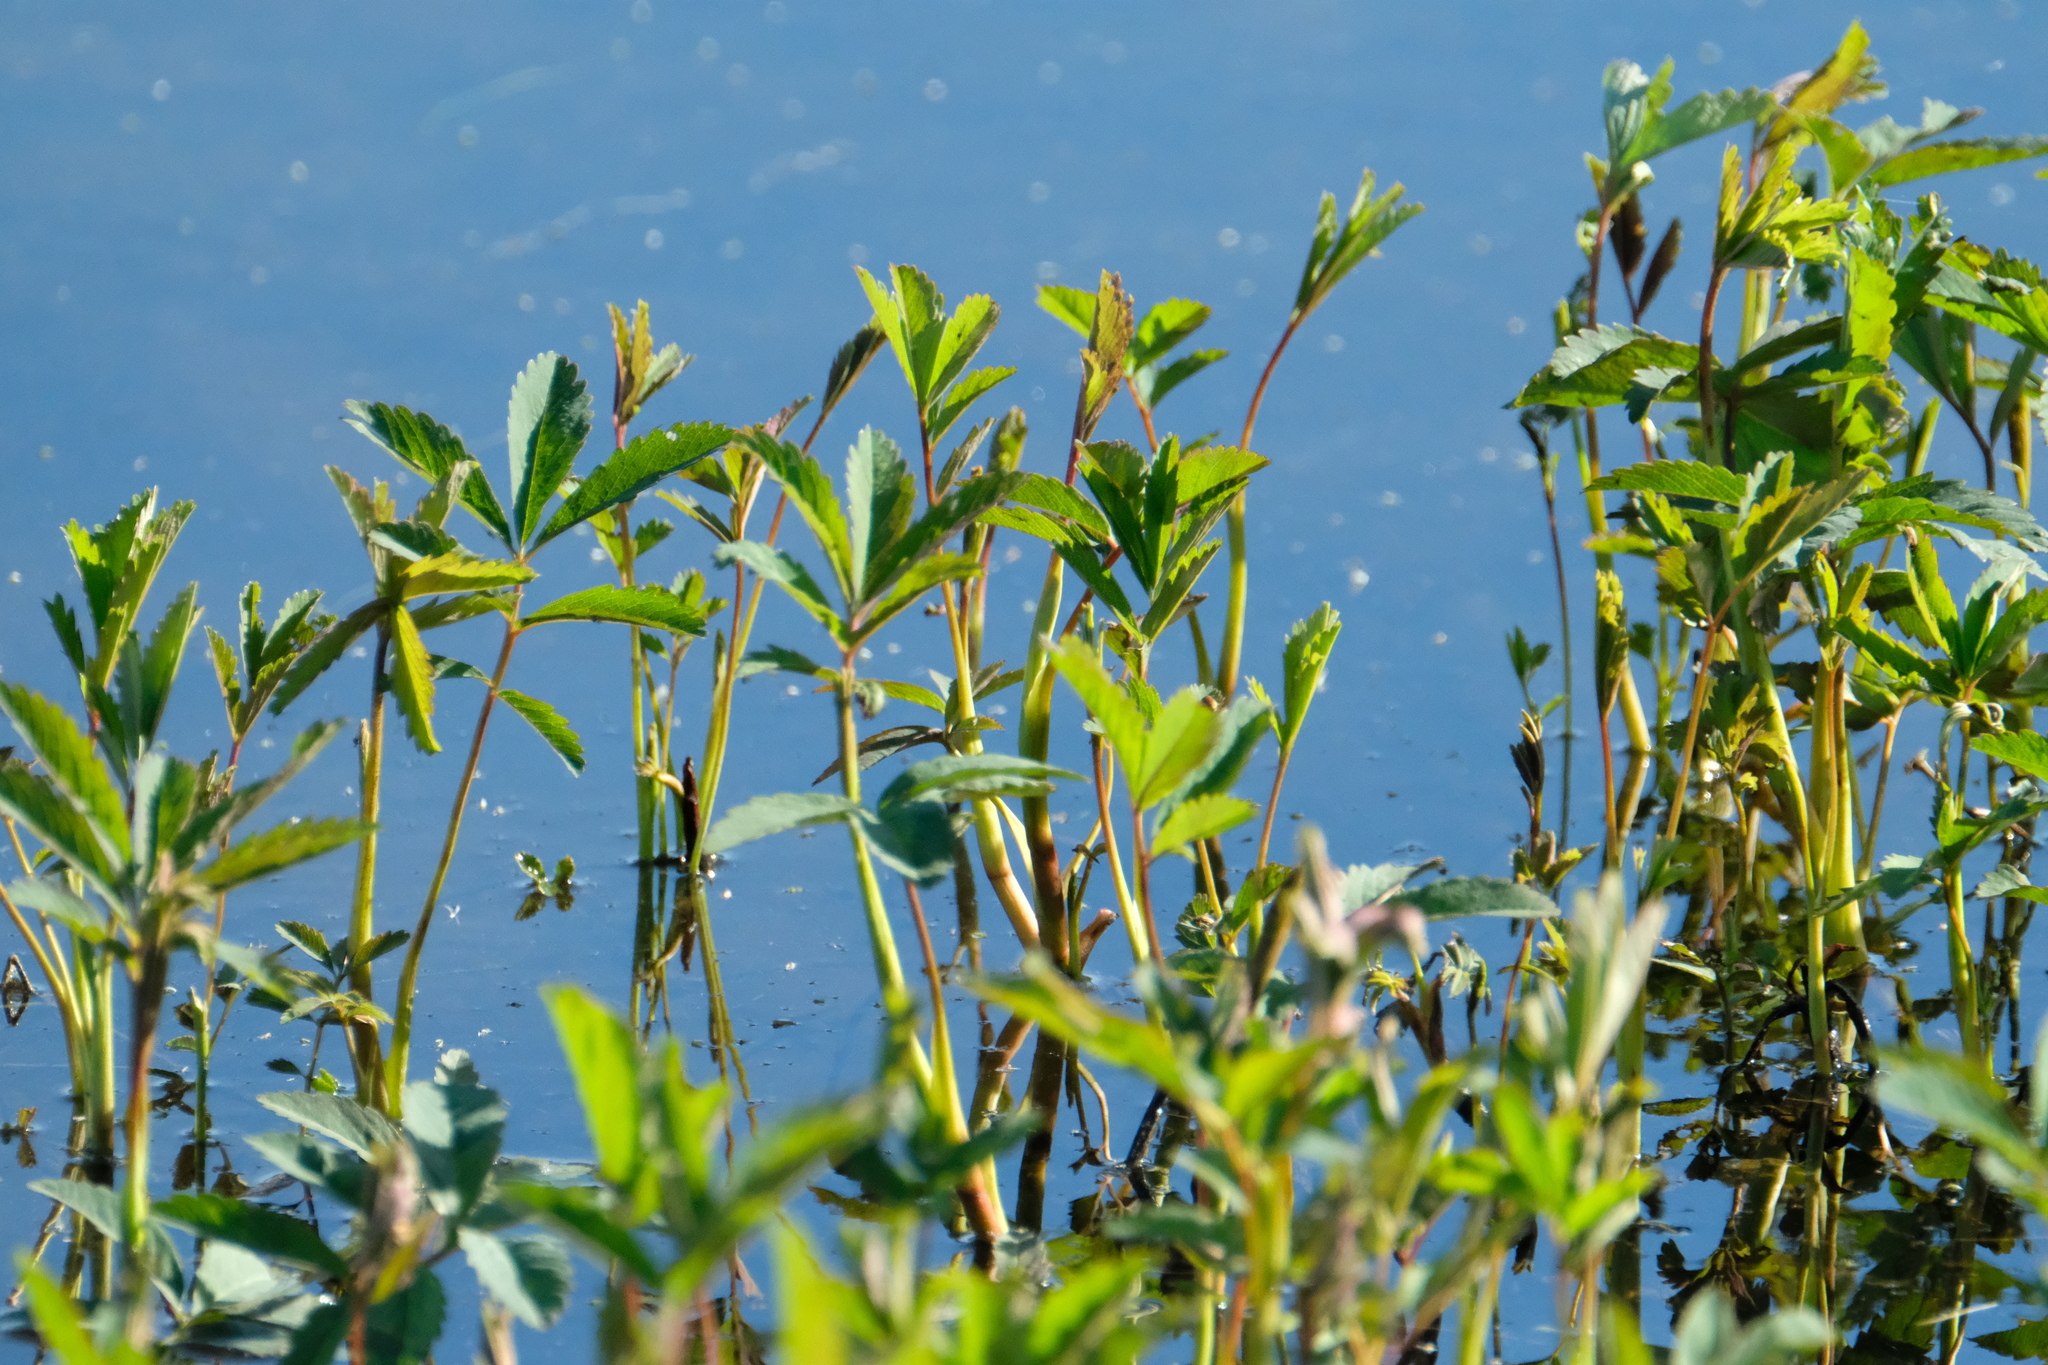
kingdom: Plantae
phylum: Tracheophyta
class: Magnoliopsida
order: Rosales
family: Rosaceae
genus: Comarum
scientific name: Comarum palustre
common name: Marsh cinquefoil
